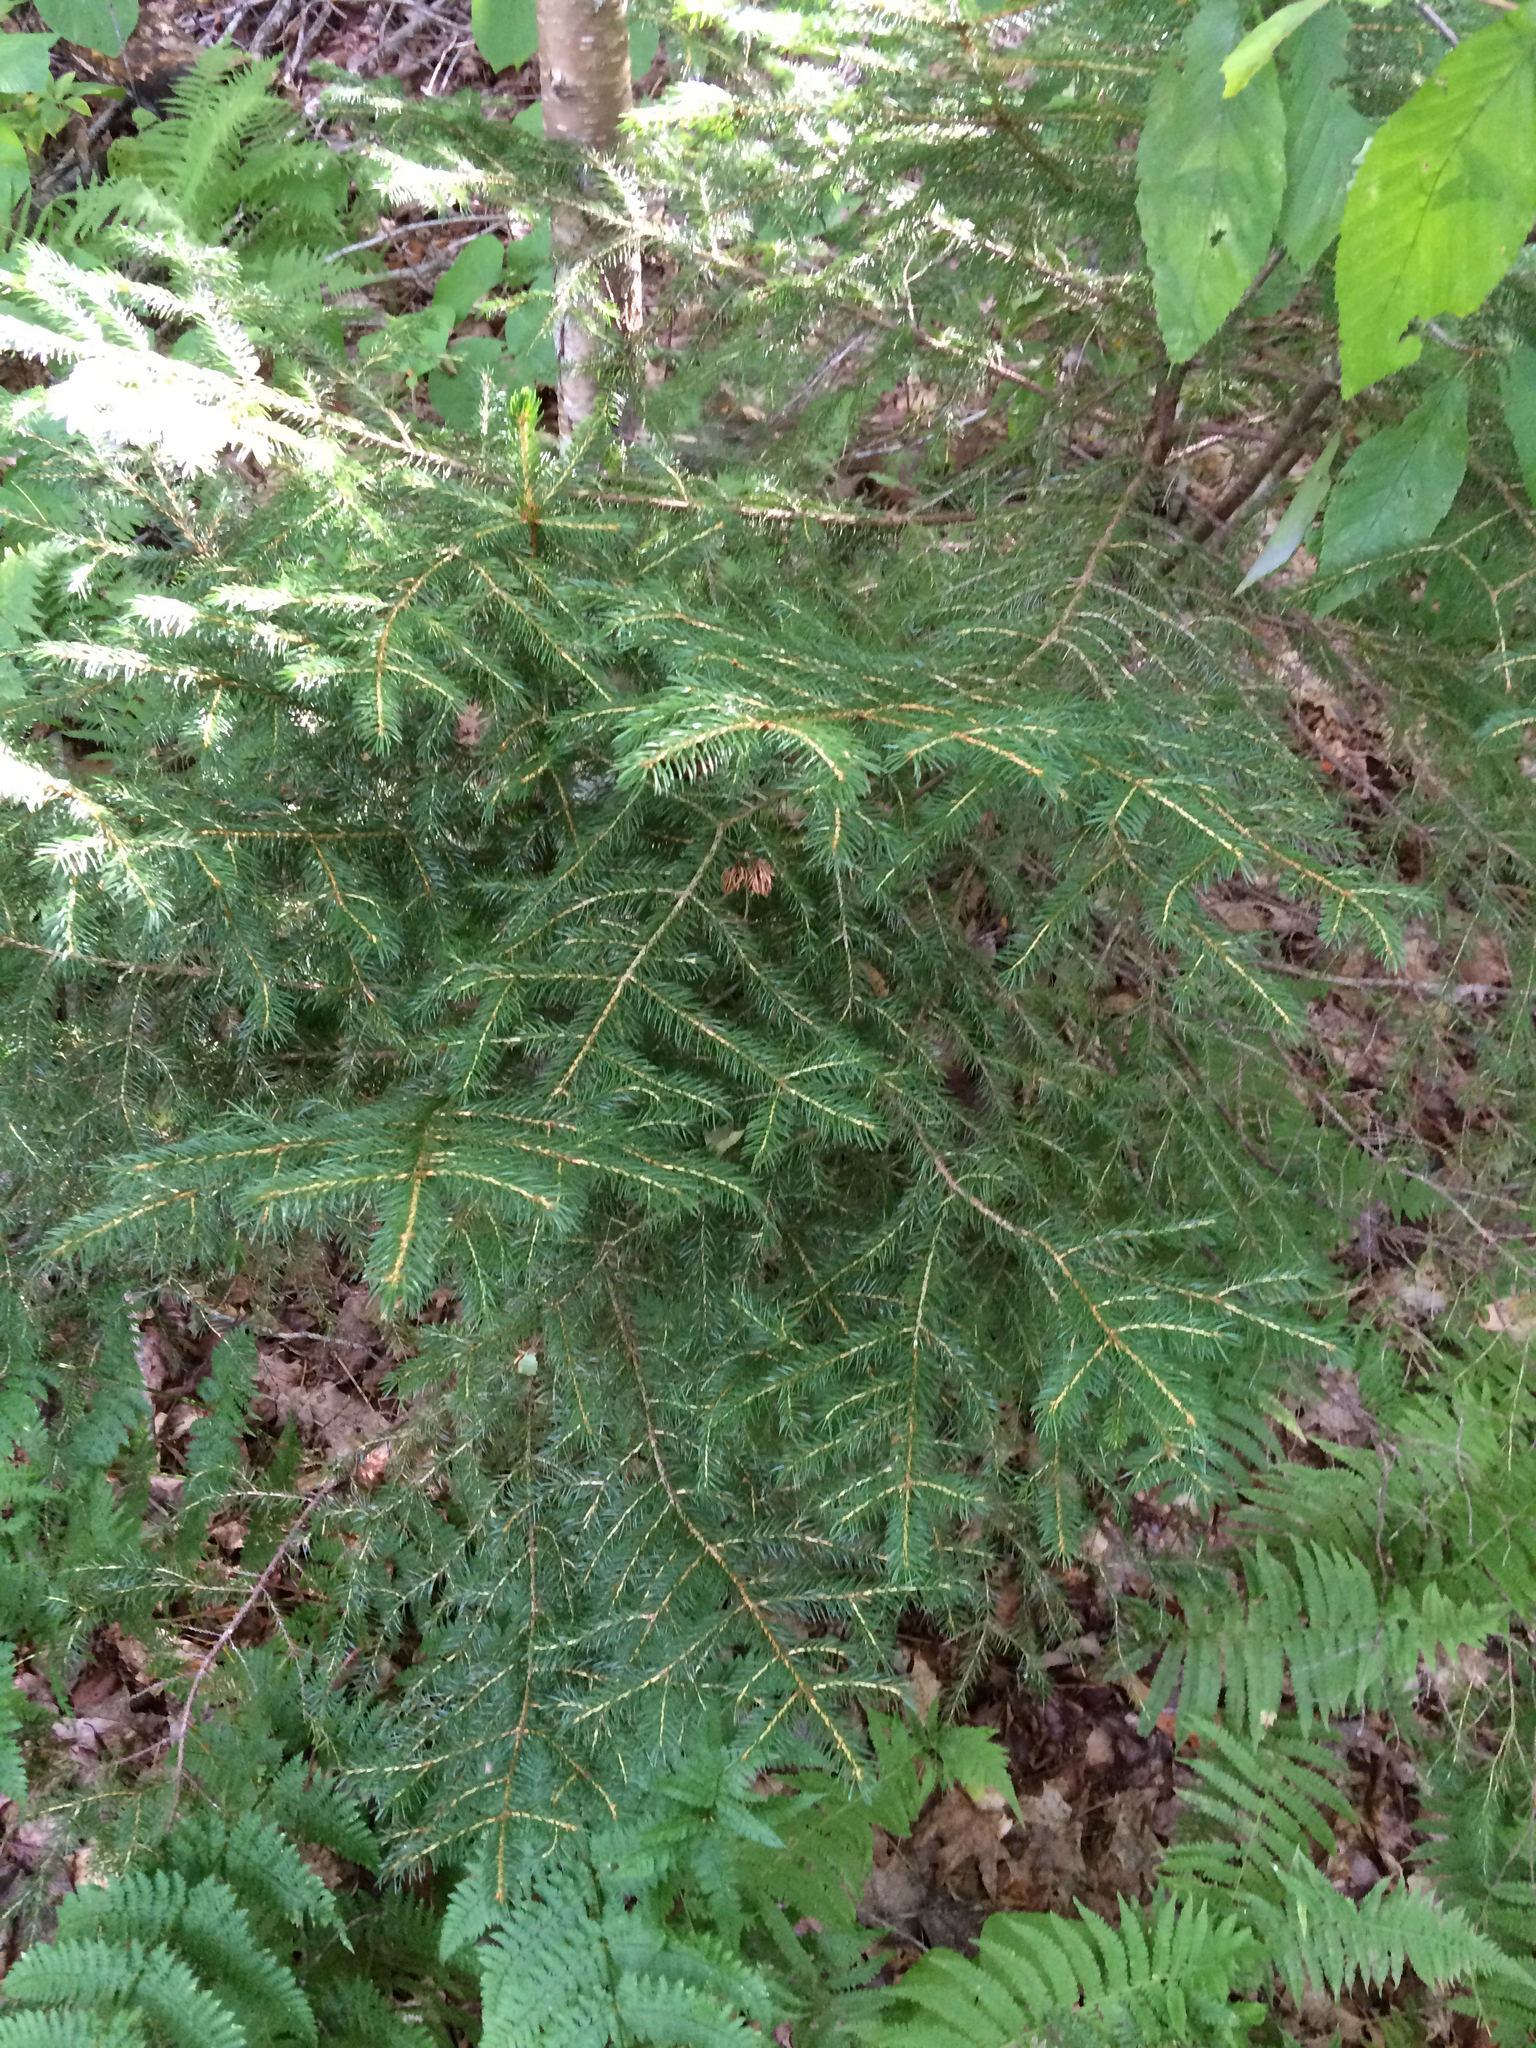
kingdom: Plantae
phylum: Tracheophyta
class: Pinopsida
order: Pinales
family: Pinaceae
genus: Picea
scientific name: Picea rubens
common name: Red spruce
